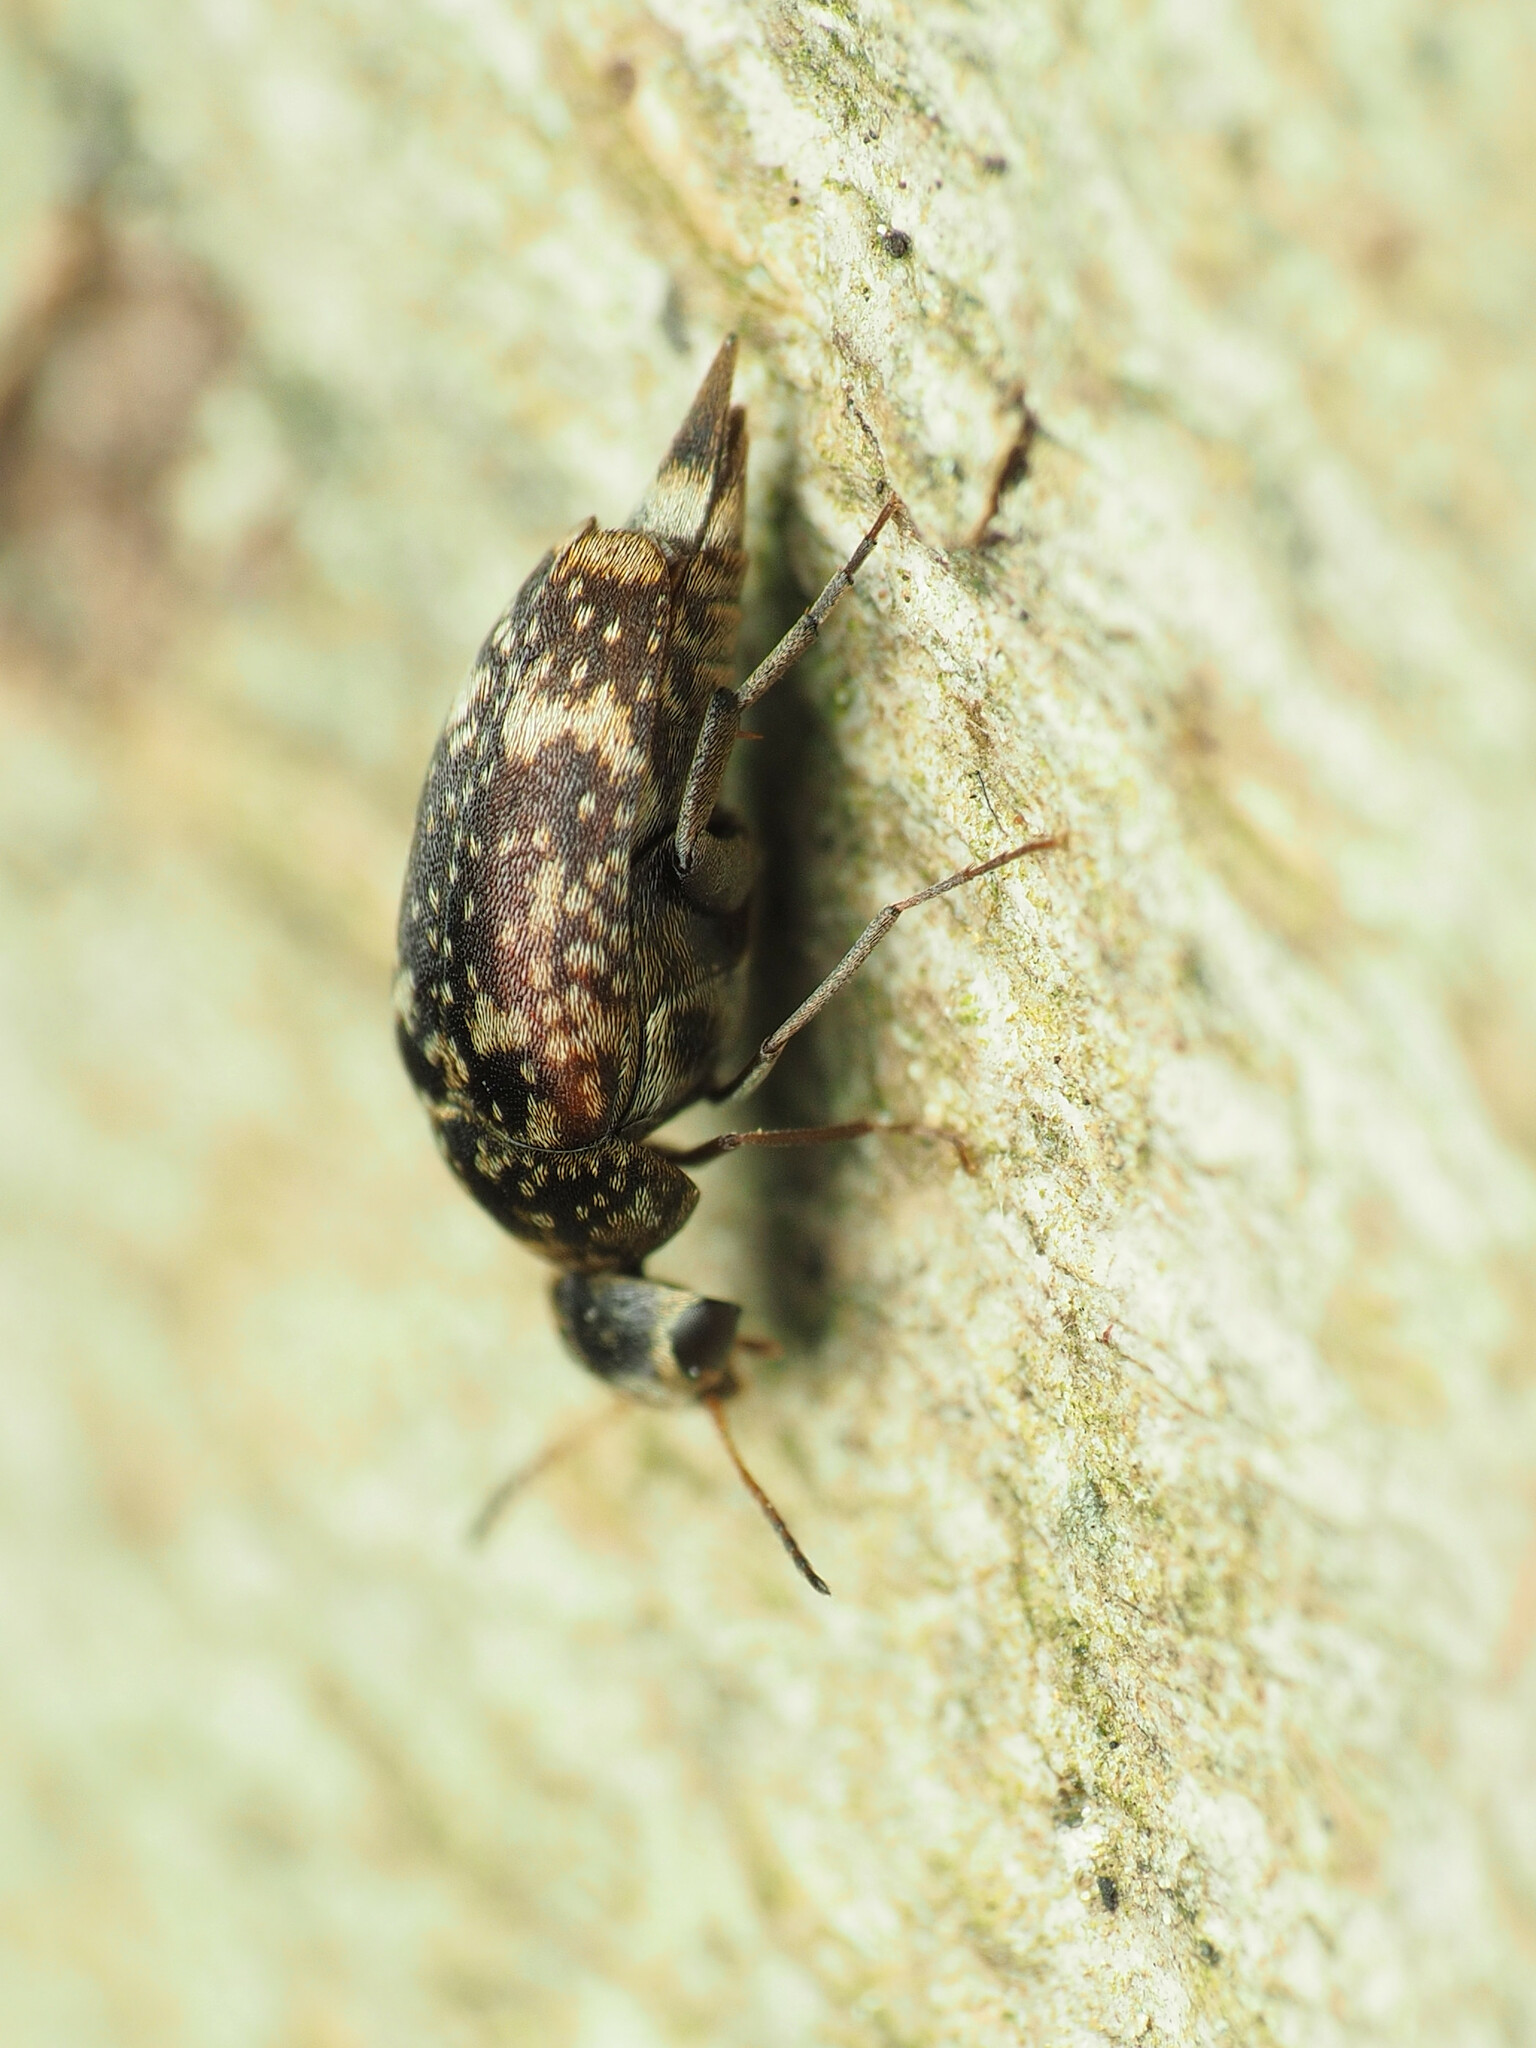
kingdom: Animalia
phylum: Arthropoda
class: Insecta
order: Coleoptera
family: Mordellidae
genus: Mordellaria
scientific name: Mordellaria serval
